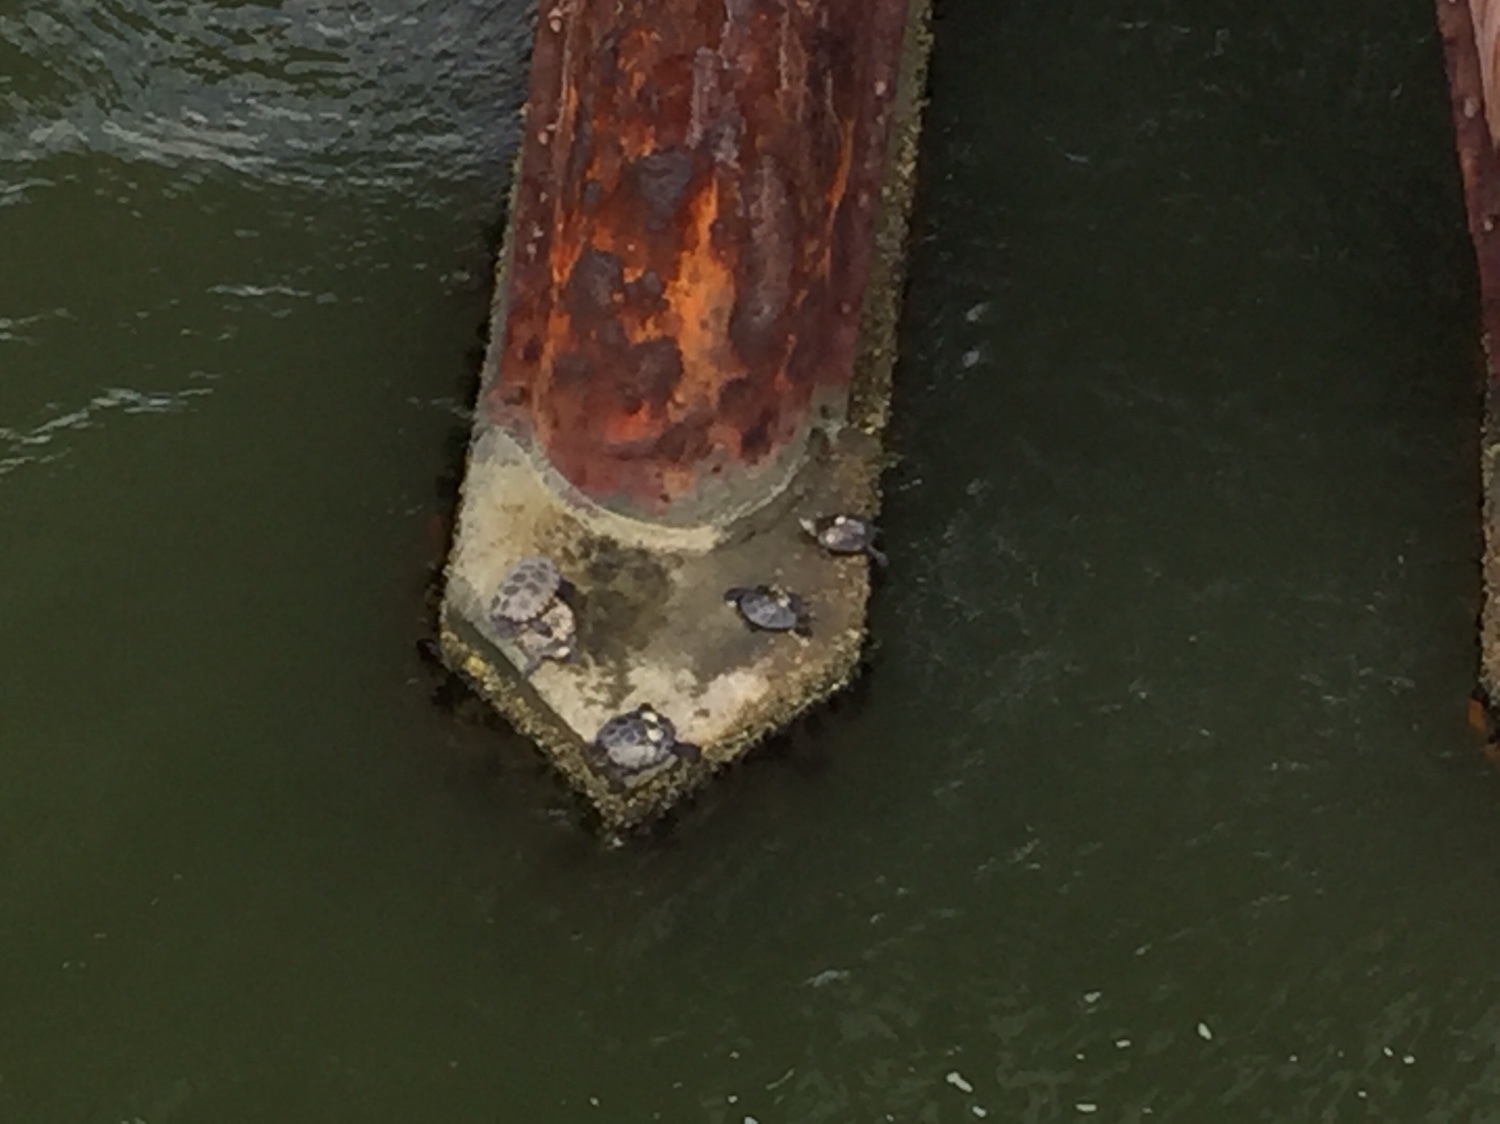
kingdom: Animalia
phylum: Chordata
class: Testudines
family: Emydidae
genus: Malaclemys
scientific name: Malaclemys terrapin
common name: Diamondback terrapin
